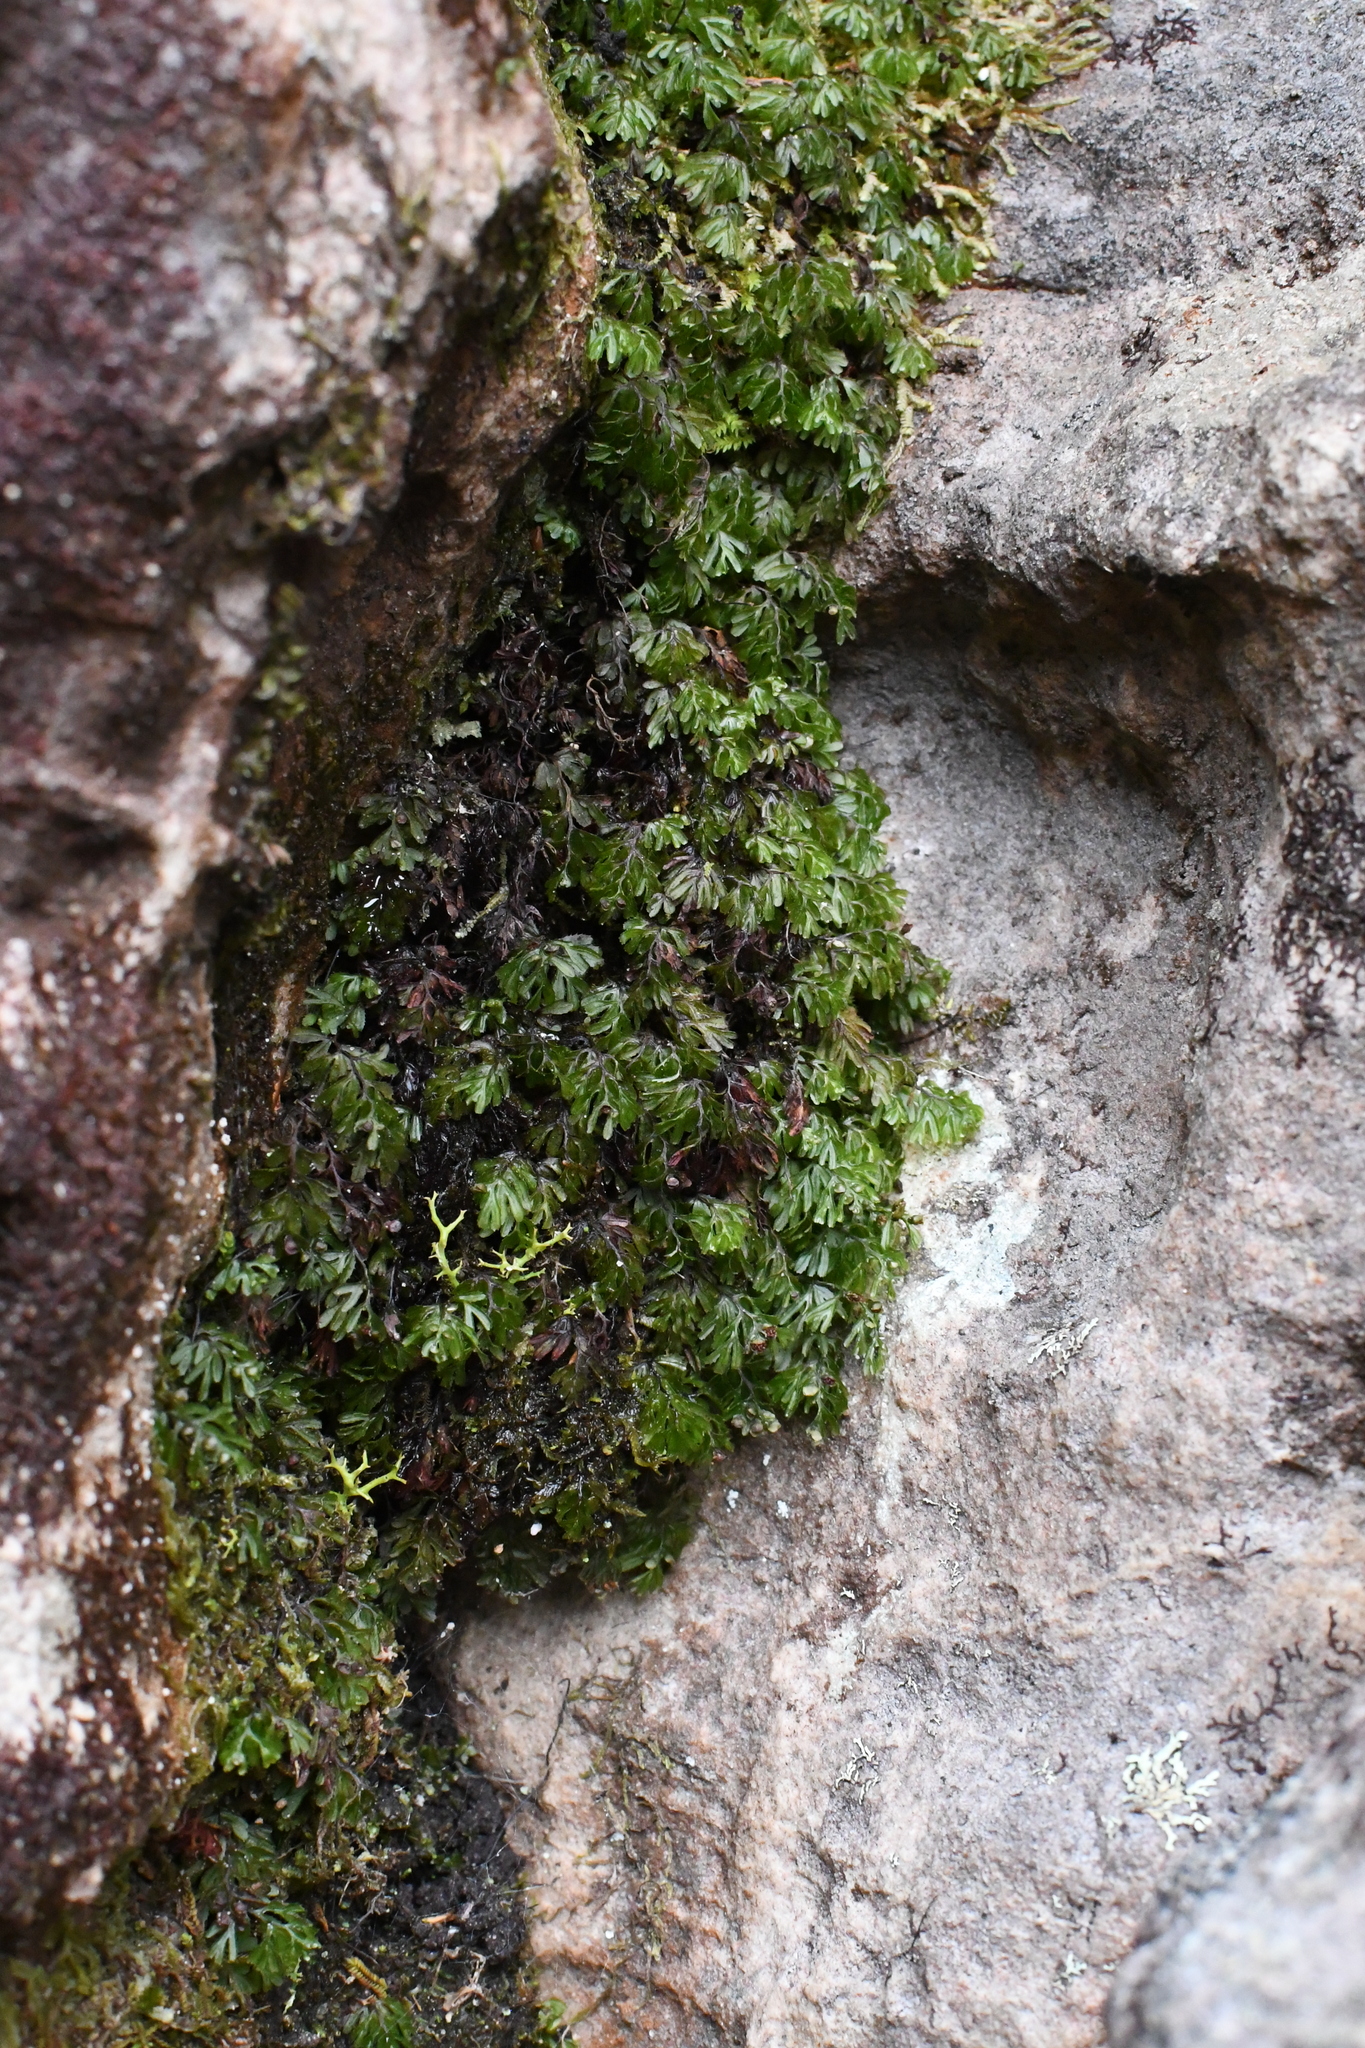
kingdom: Plantae
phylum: Tracheophyta
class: Polypodiopsida
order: Hymenophyllales
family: Hymenophyllaceae
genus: Hymenophyllum
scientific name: Hymenophyllum cupressiforme
